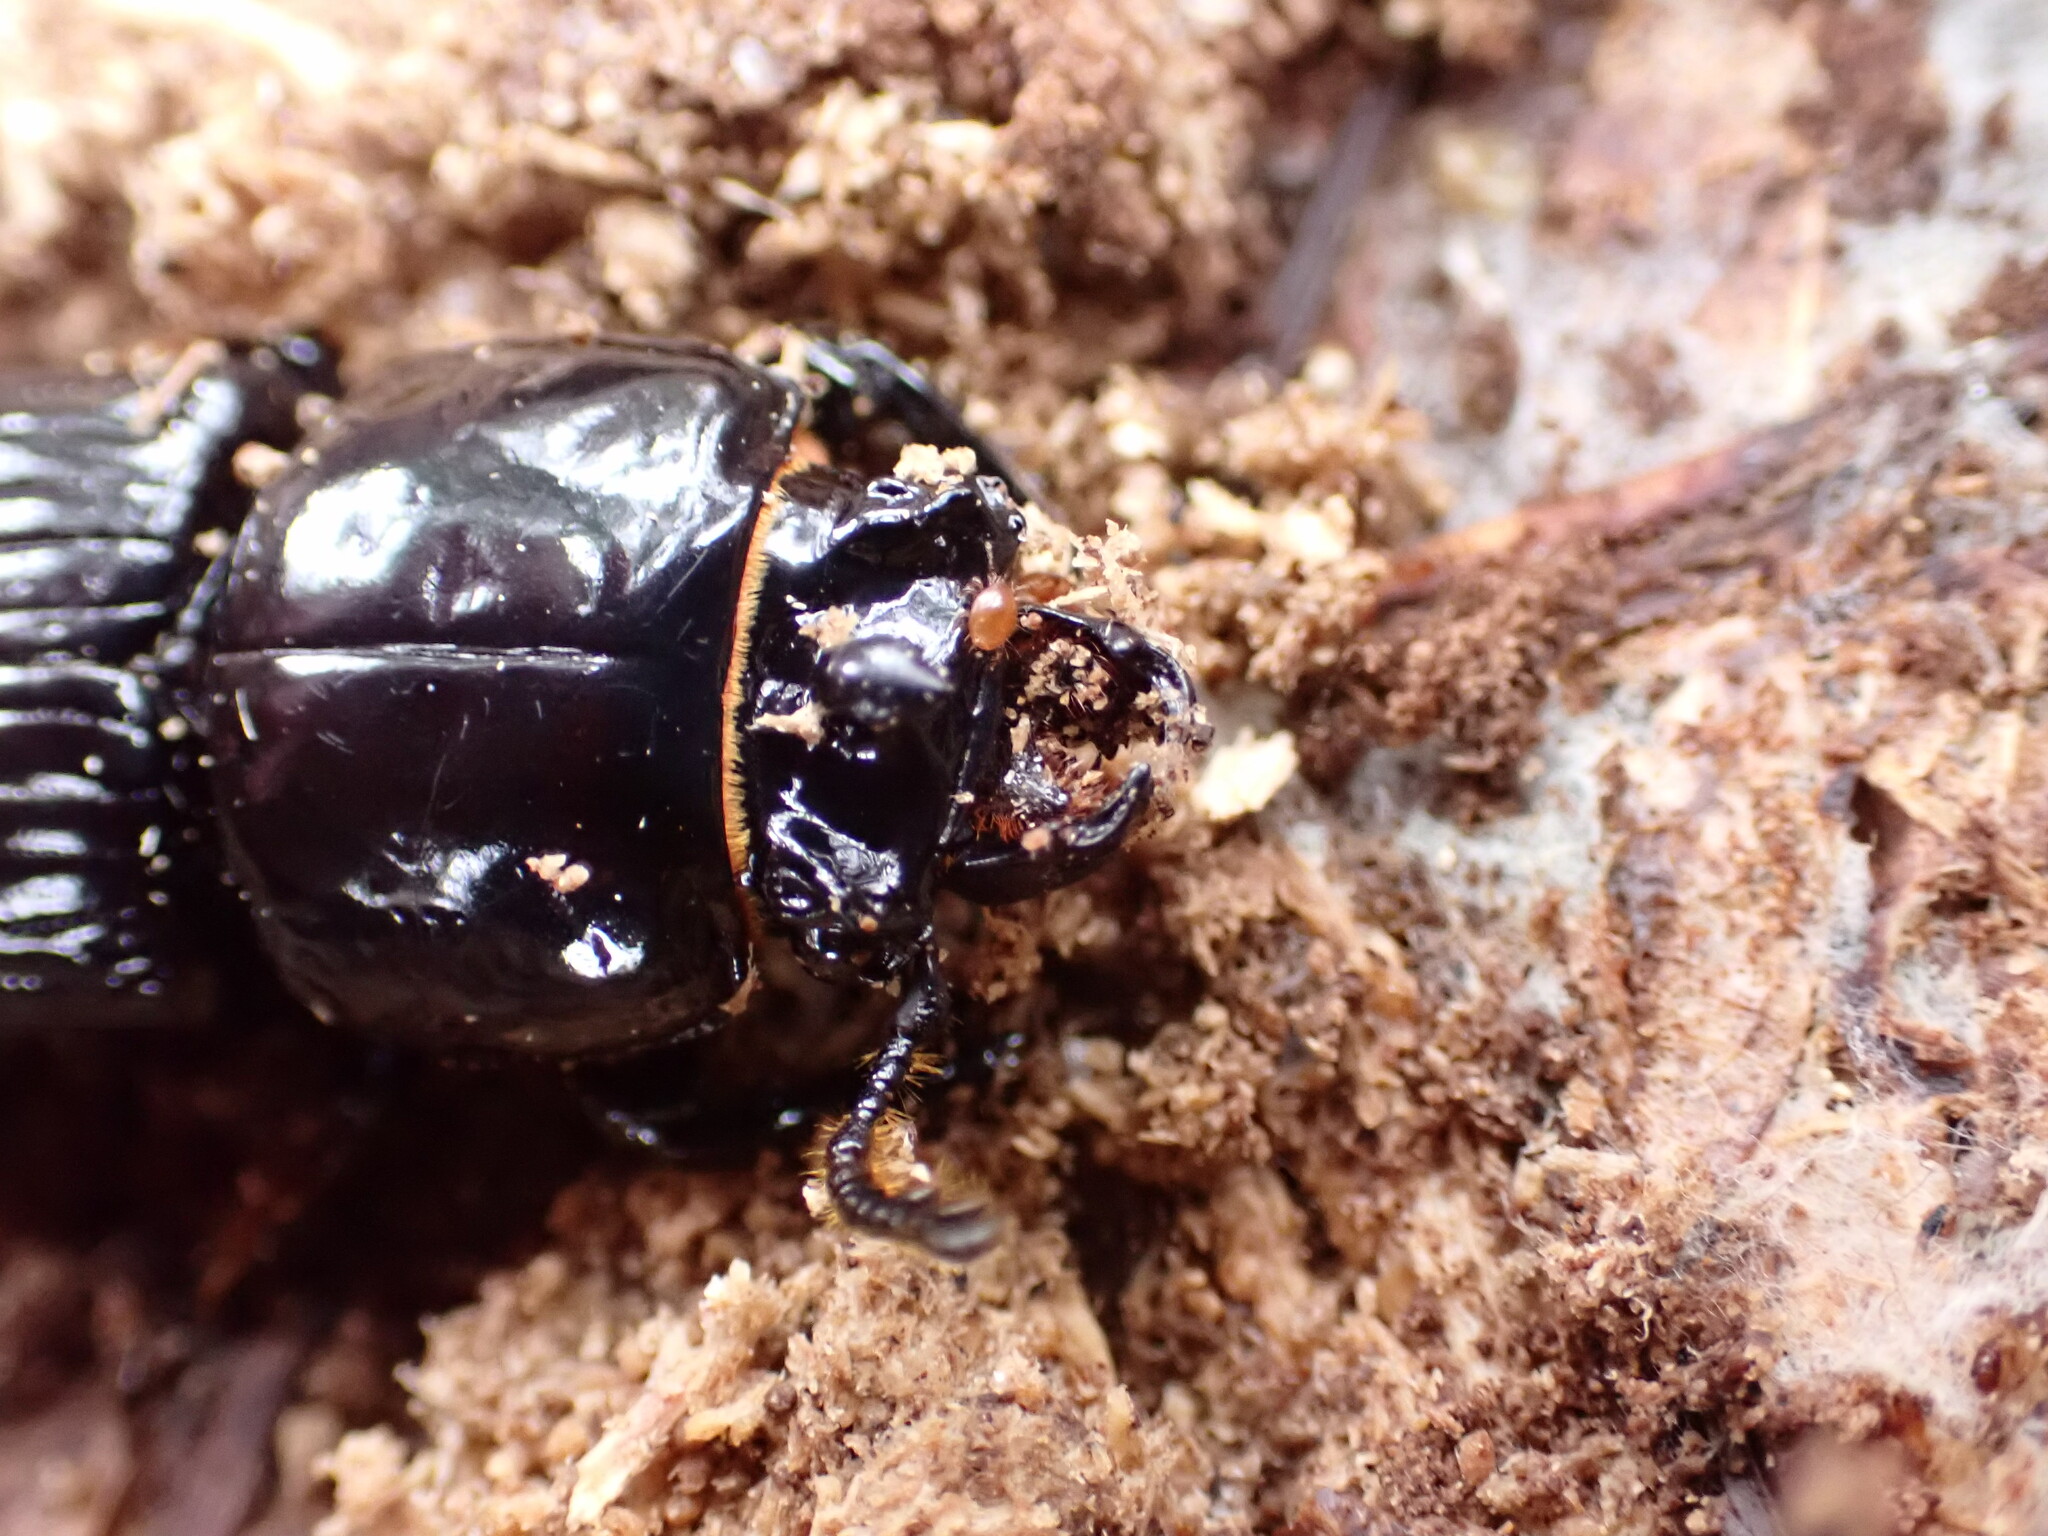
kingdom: Animalia
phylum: Arthropoda
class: Insecta
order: Coleoptera
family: Passalidae
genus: Odontotaenius
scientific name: Odontotaenius disjunctus
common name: Patent leather beetle
